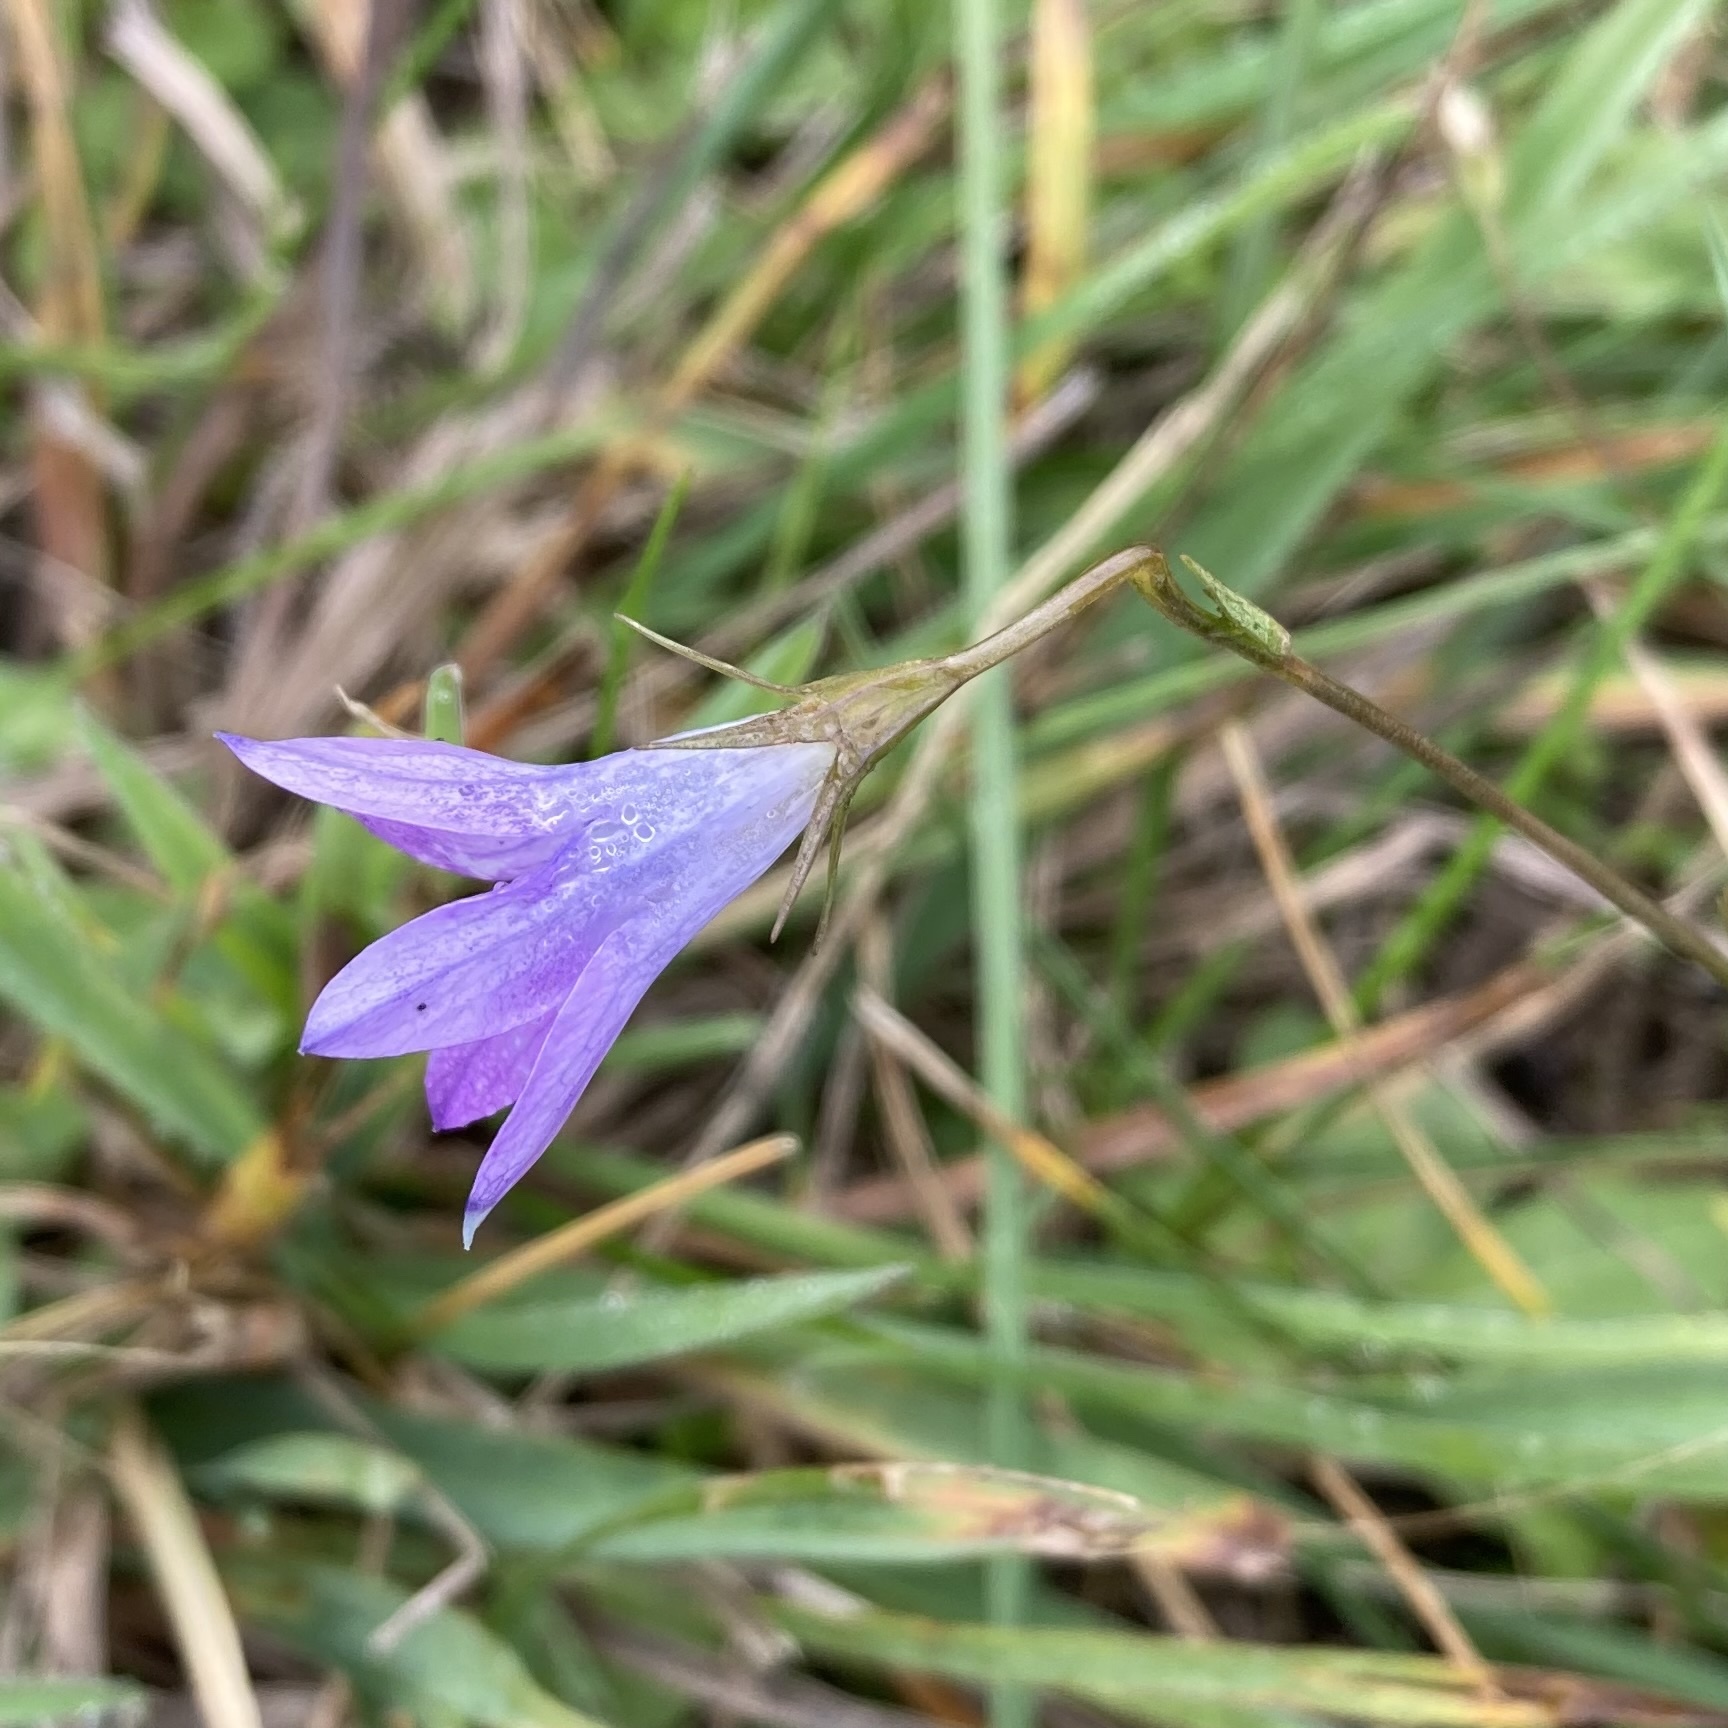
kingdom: Plantae
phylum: Tracheophyta
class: Magnoliopsida
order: Asterales
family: Campanulaceae
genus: Campanula
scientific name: Campanula patula
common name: Spreading bellflower
